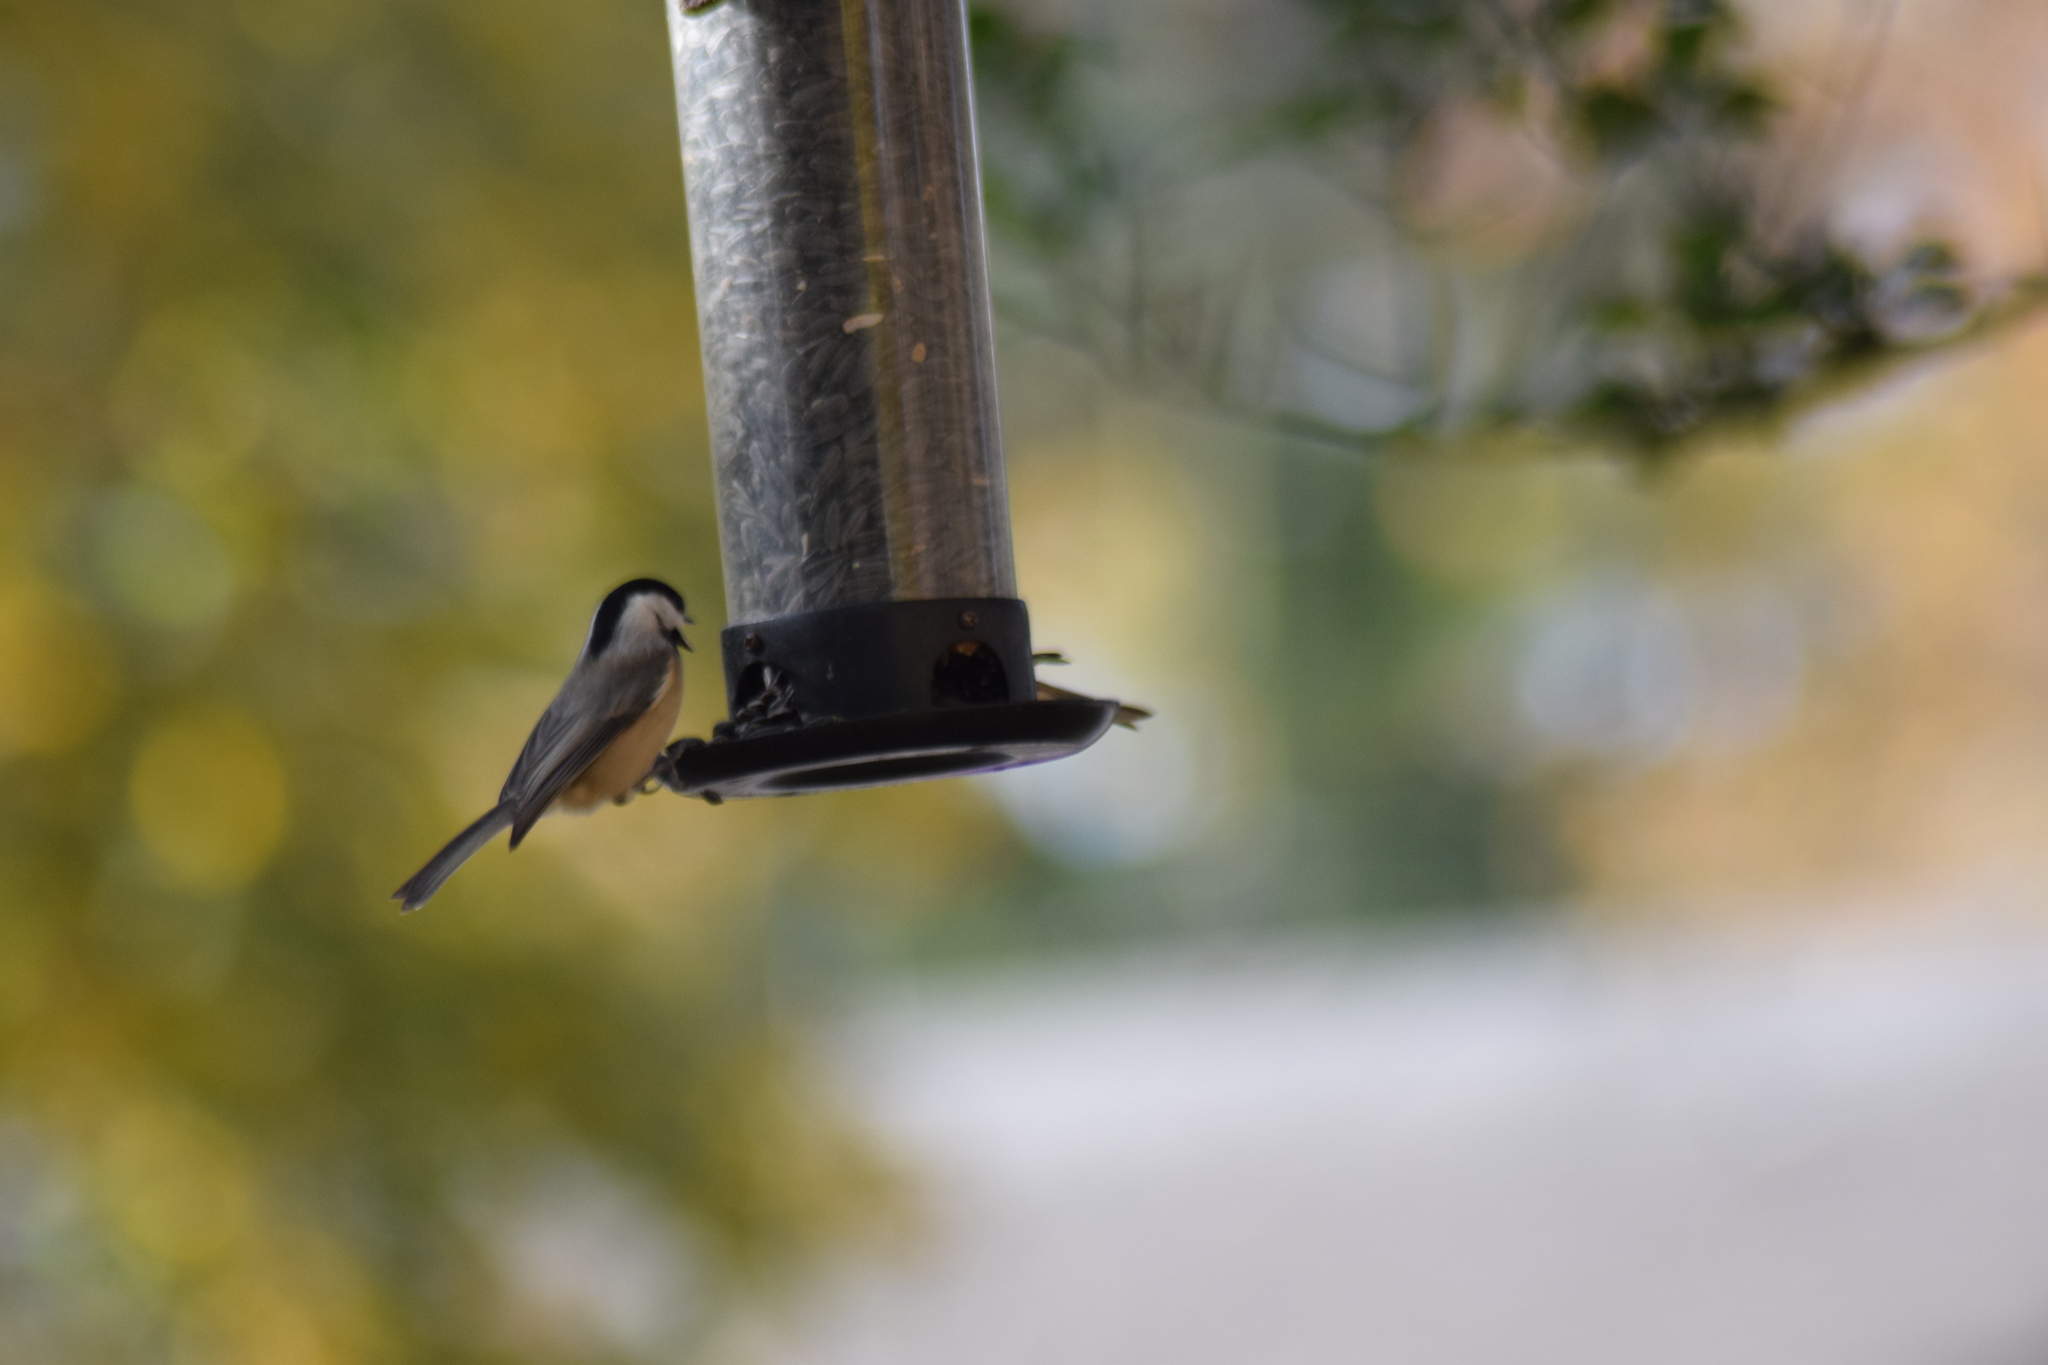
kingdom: Animalia
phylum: Chordata
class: Aves
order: Passeriformes
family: Paridae
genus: Poecile
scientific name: Poecile carolinensis
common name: Carolina chickadee
